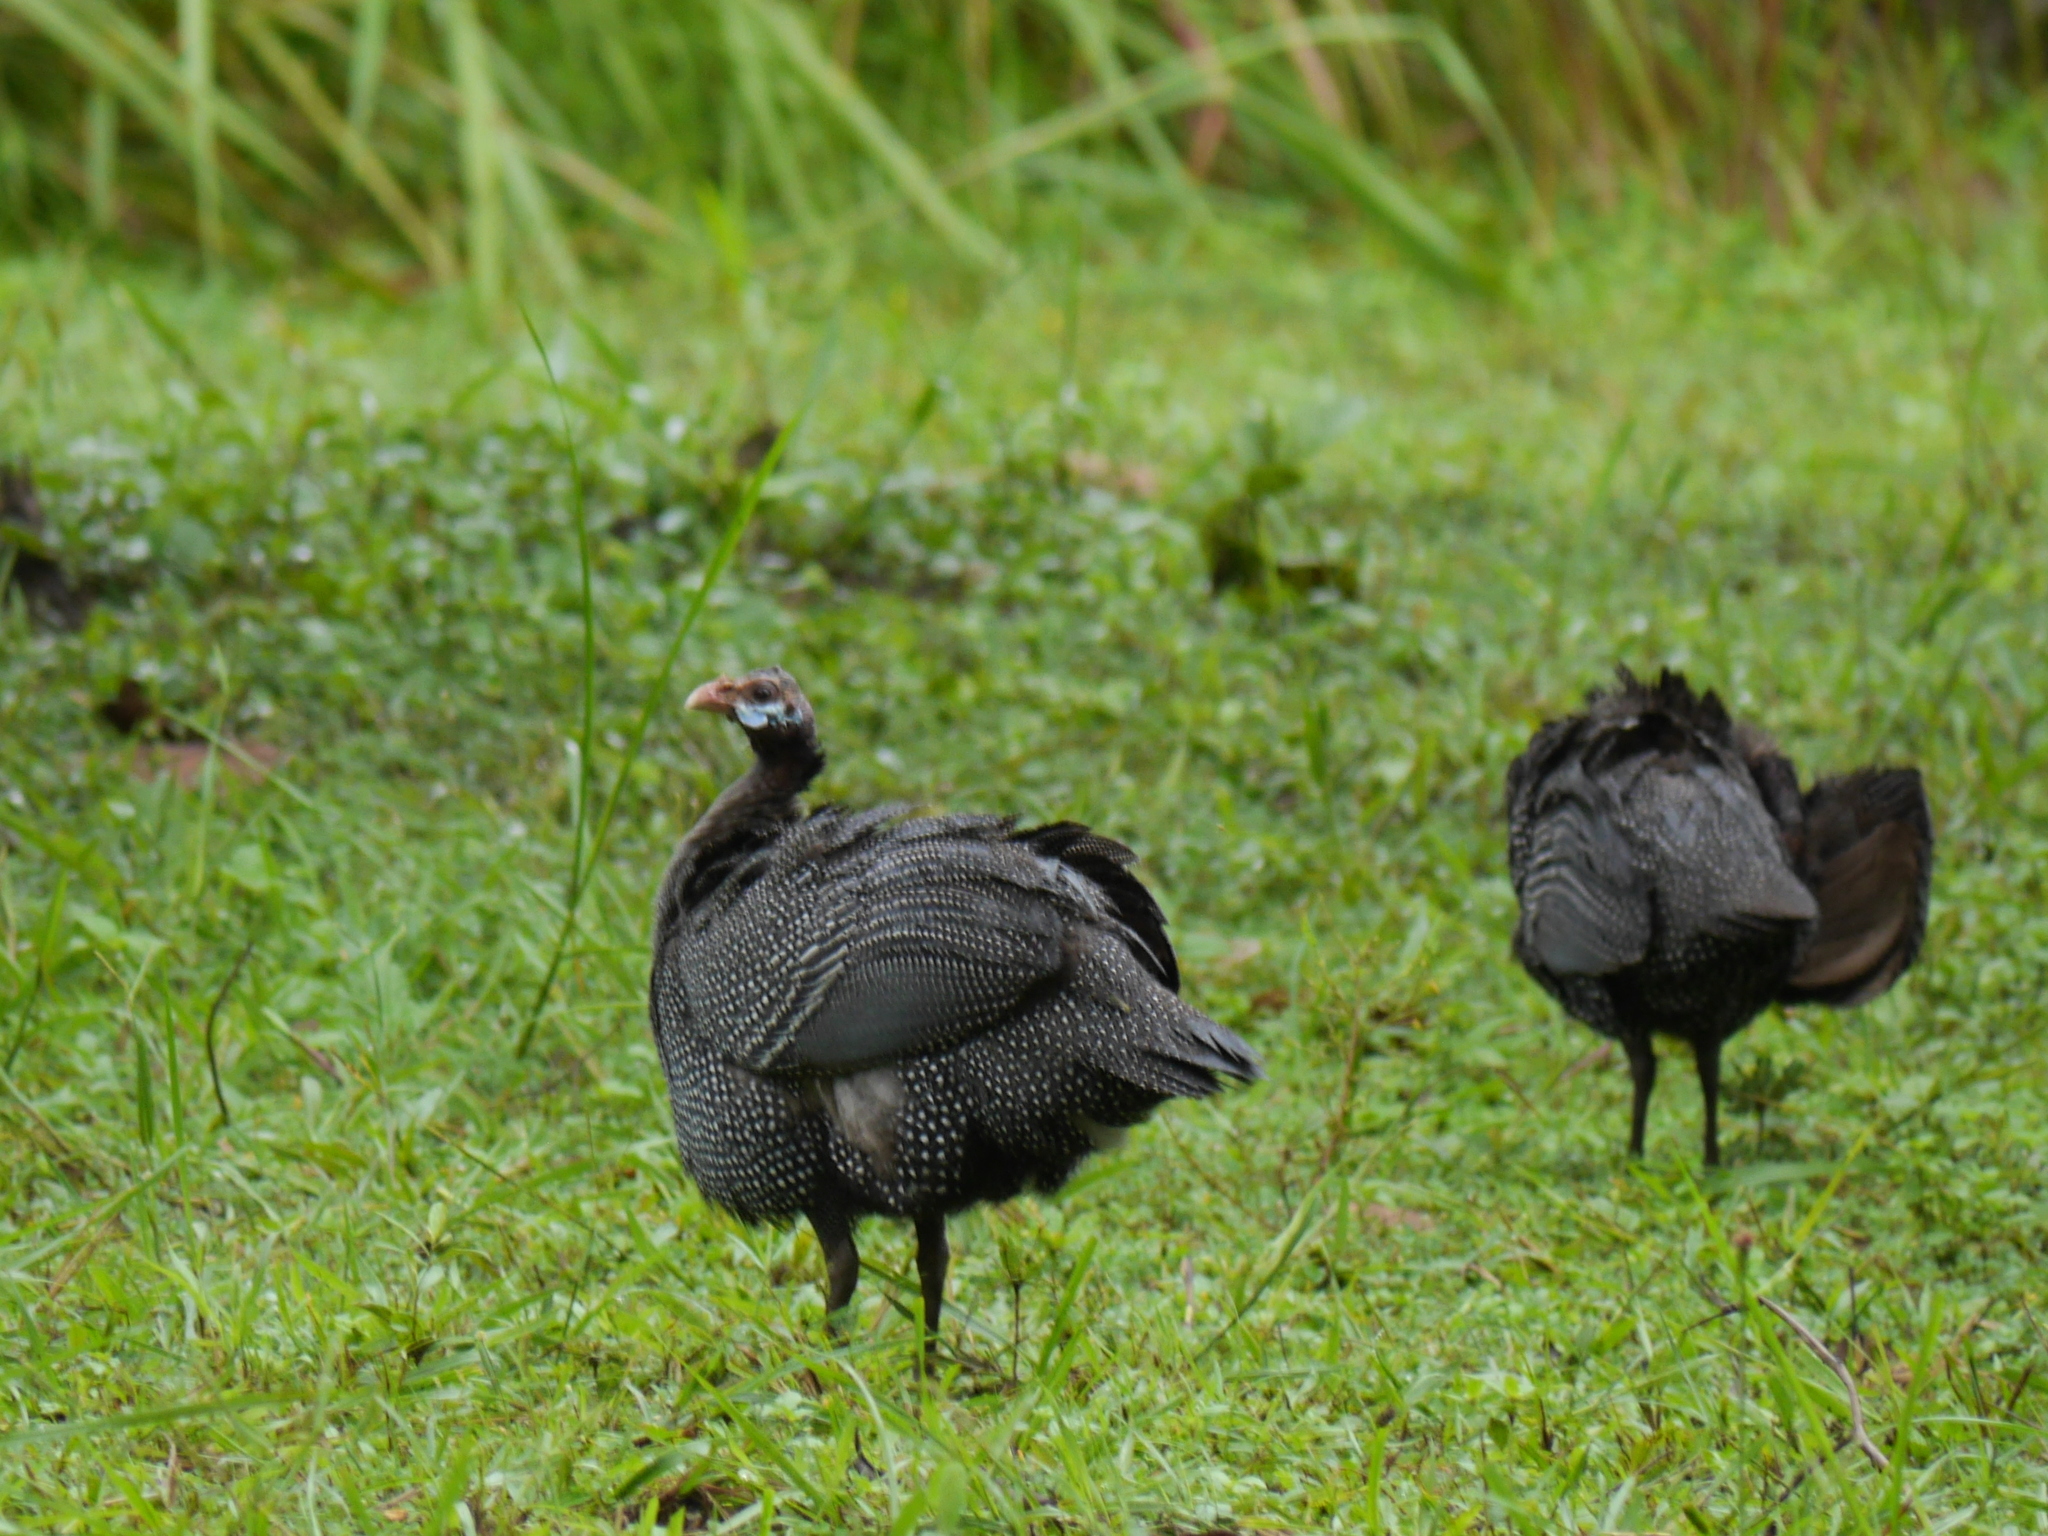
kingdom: Animalia
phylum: Chordata
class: Aves
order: Galliformes
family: Numididae
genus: Numida
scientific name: Numida meleagris
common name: Helmeted guineafowl
